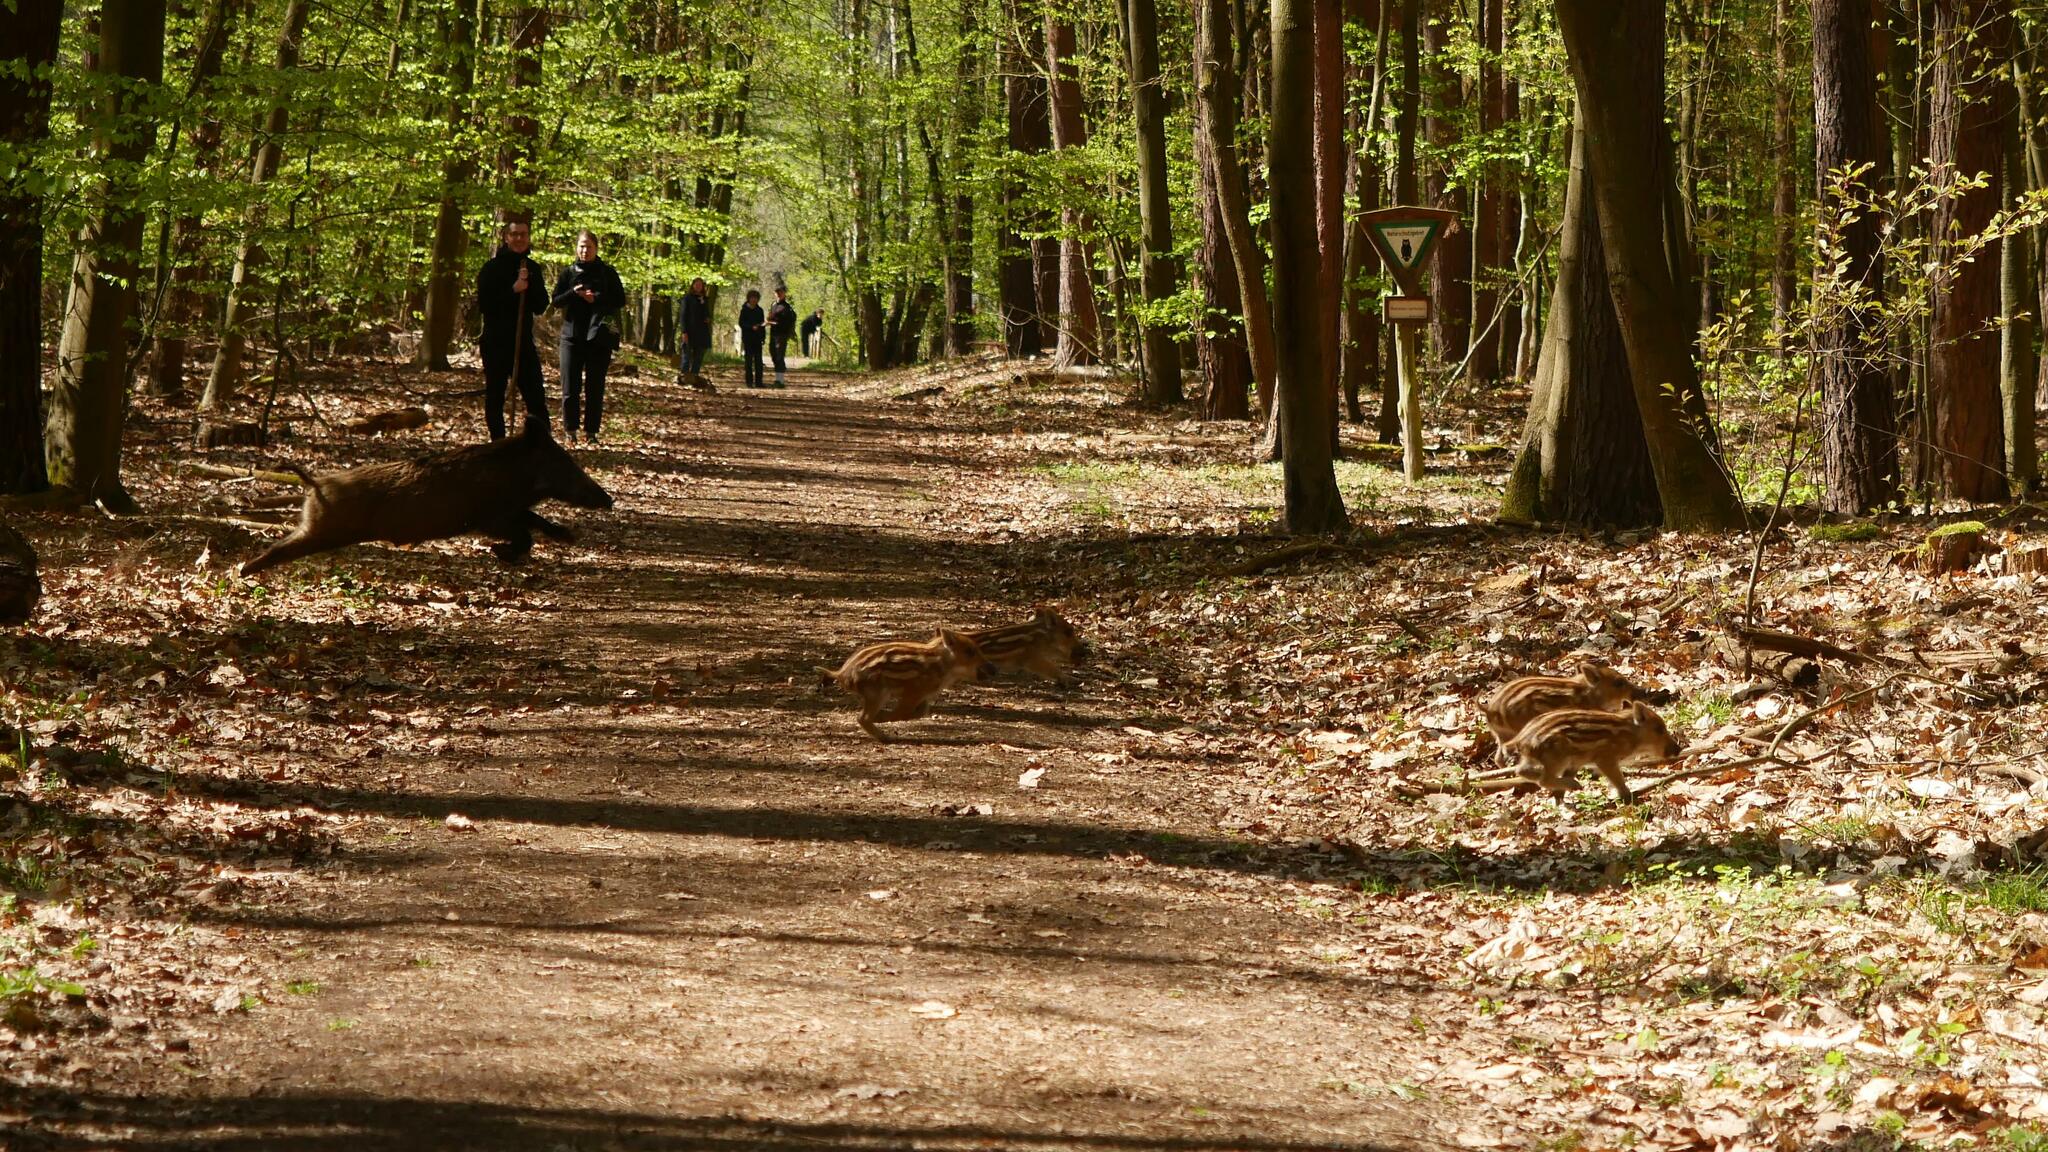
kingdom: Animalia
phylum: Chordata
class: Mammalia
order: Artiodactyla
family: Suidae
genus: Sus
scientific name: Sus scrofa
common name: Wild boar
